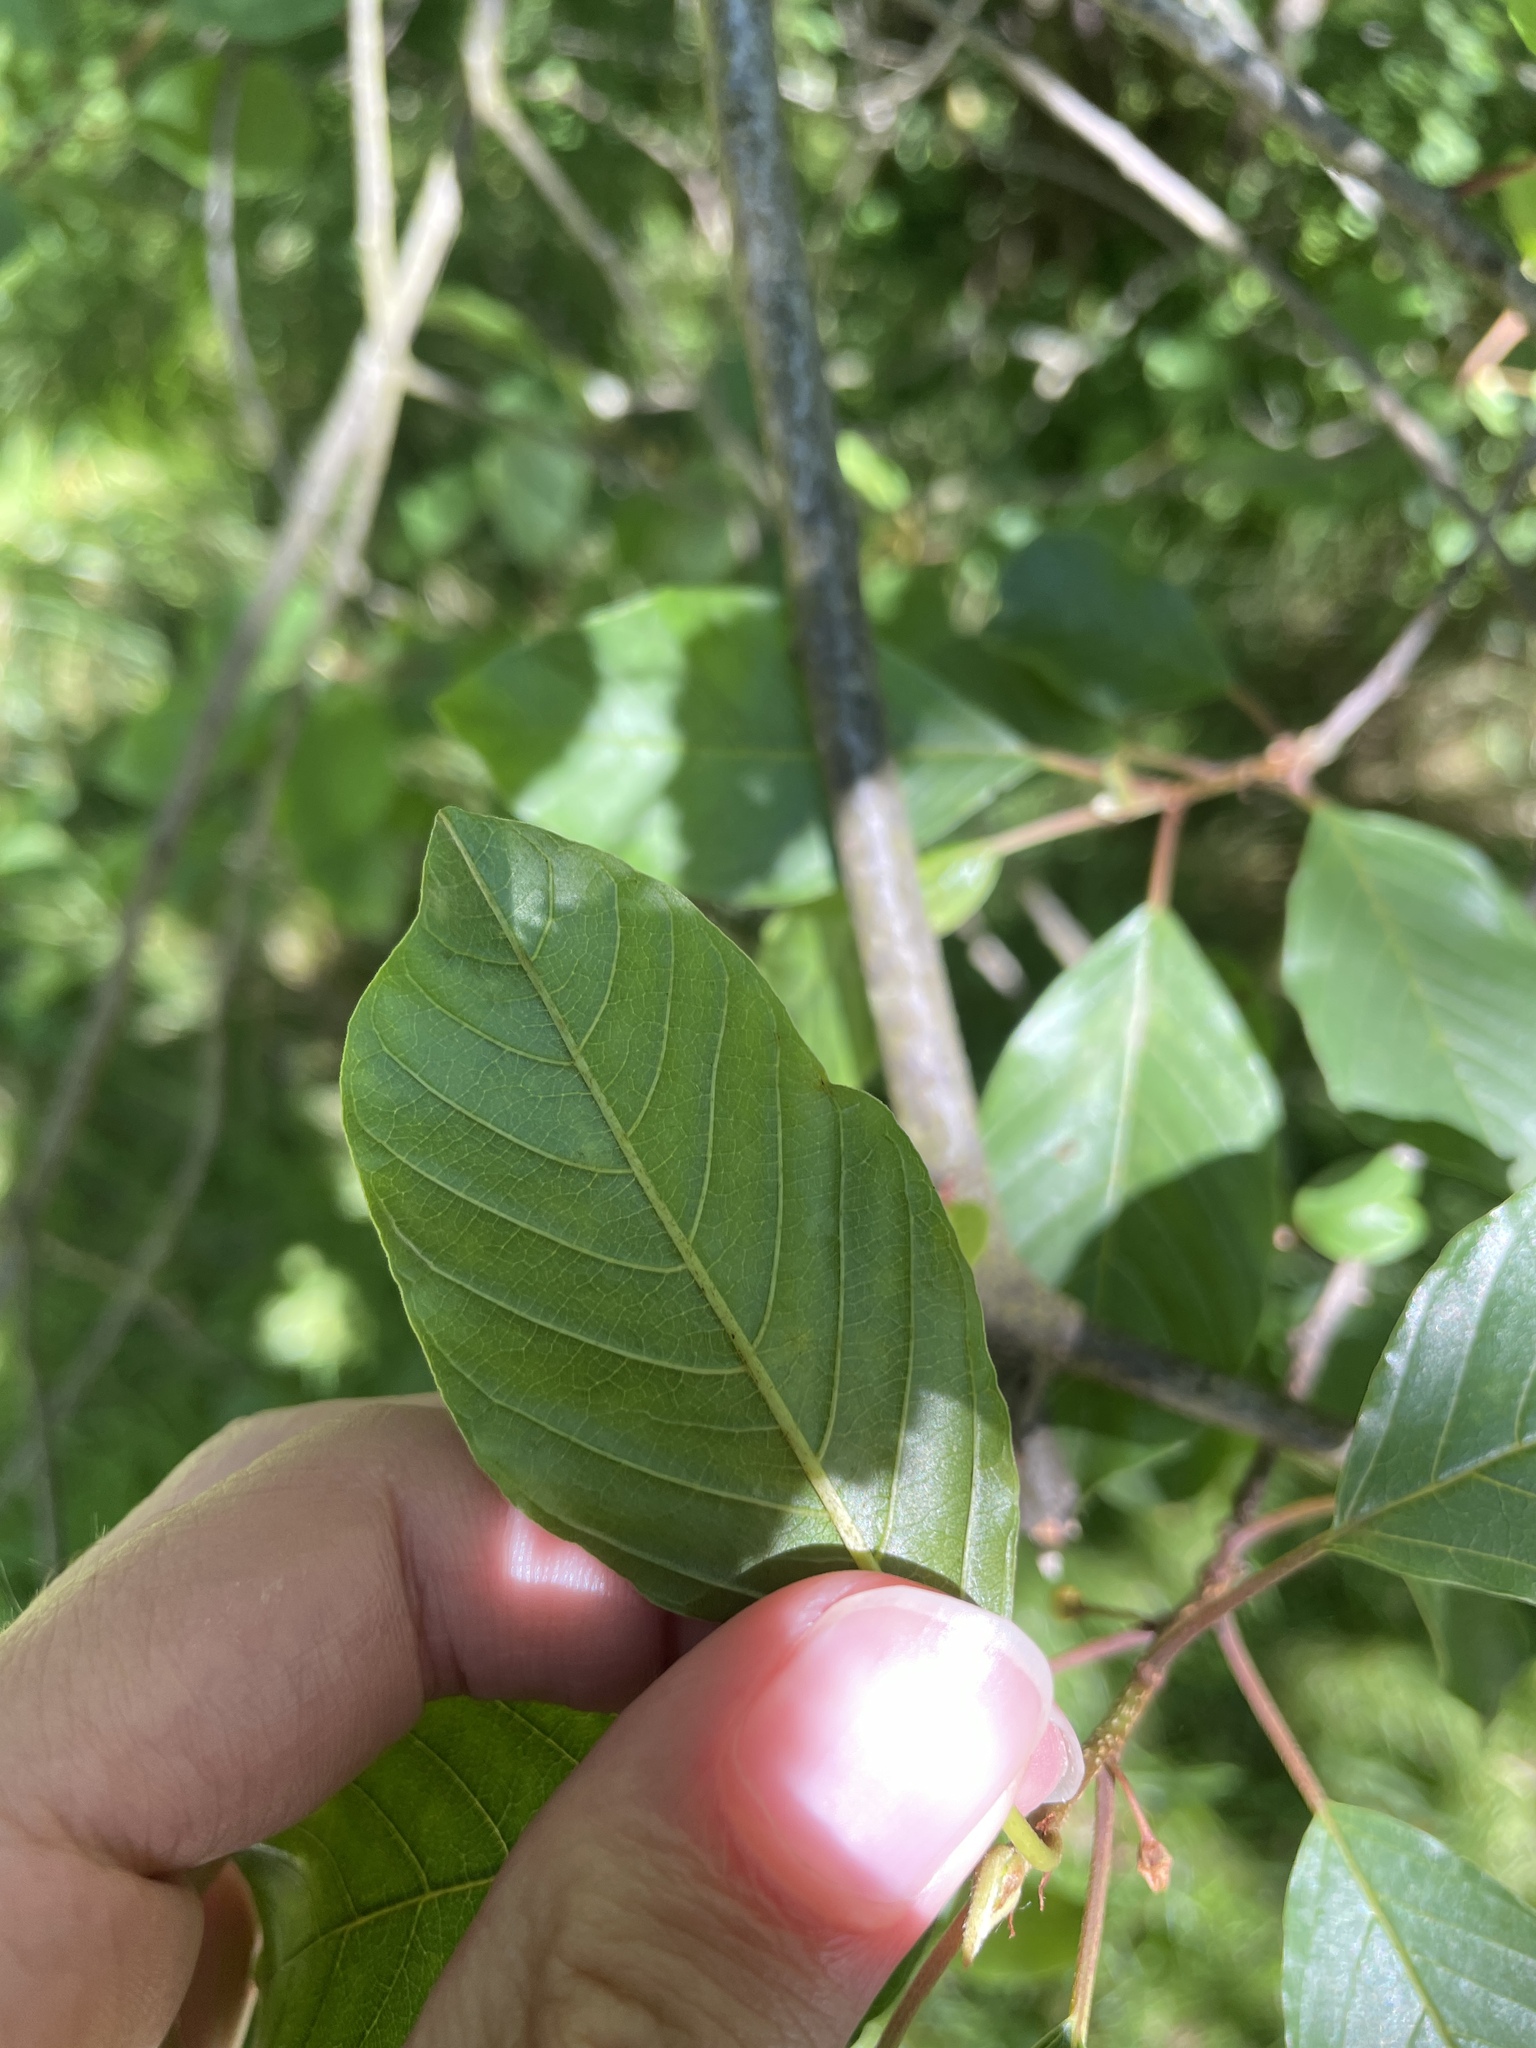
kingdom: Plantae
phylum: Tracheophyta
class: Magnoliopsida
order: Rosales
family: Rhamnaceae
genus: Frangula
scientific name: Frangula alnus
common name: Alder buckthorn
